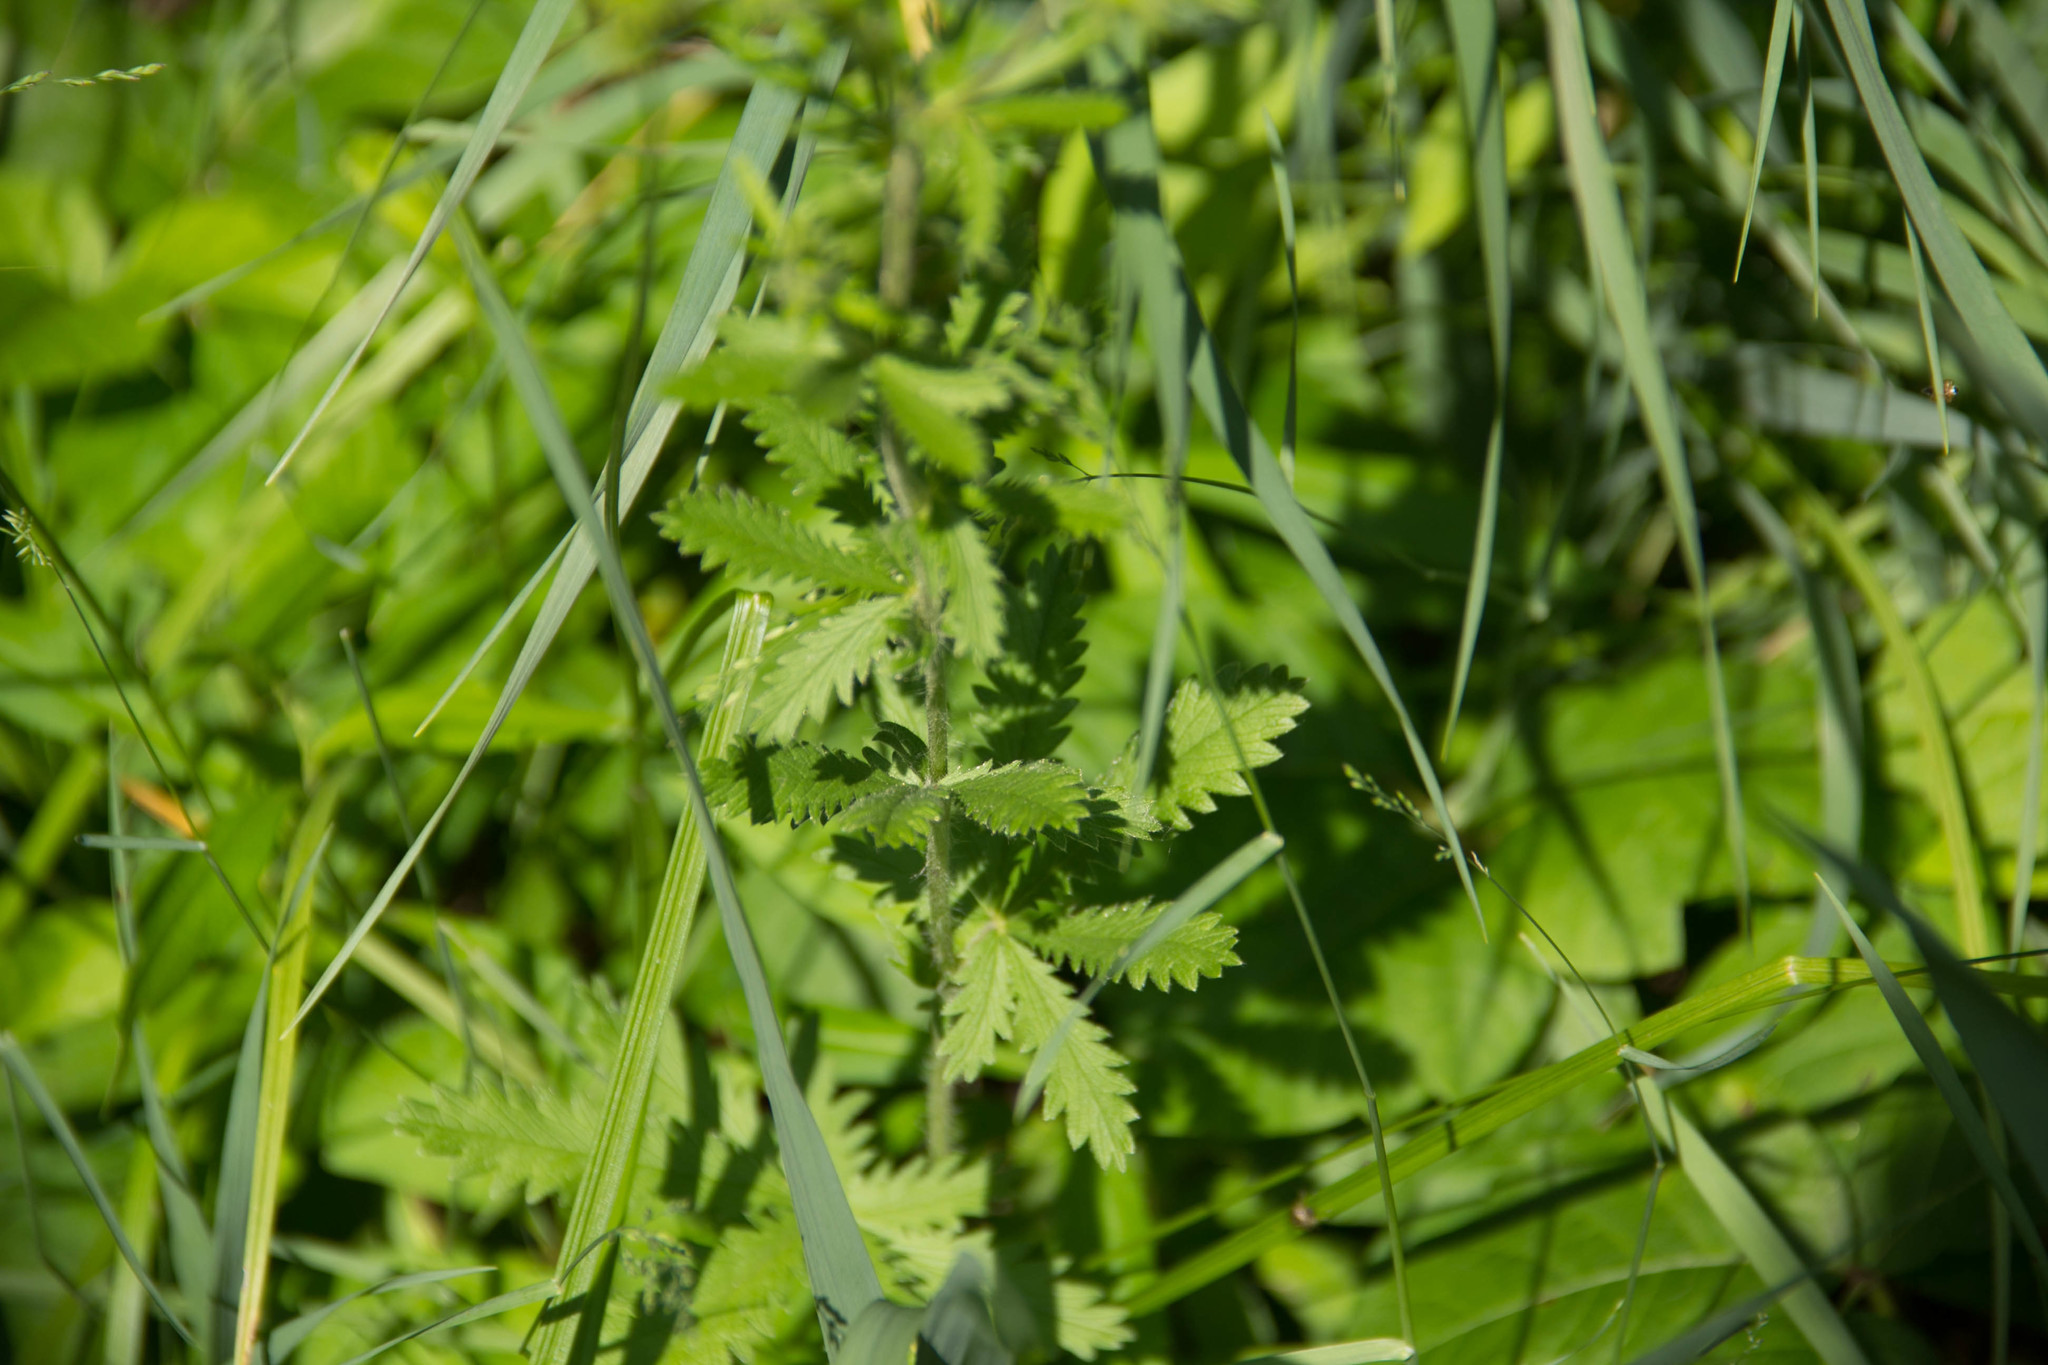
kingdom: Plantae
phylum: Tracheophyta
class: Magnoliopsida
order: Rosales
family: Rosaceae
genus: Potentilla
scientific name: Potentilla recta
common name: Sulphur cinquefoil
